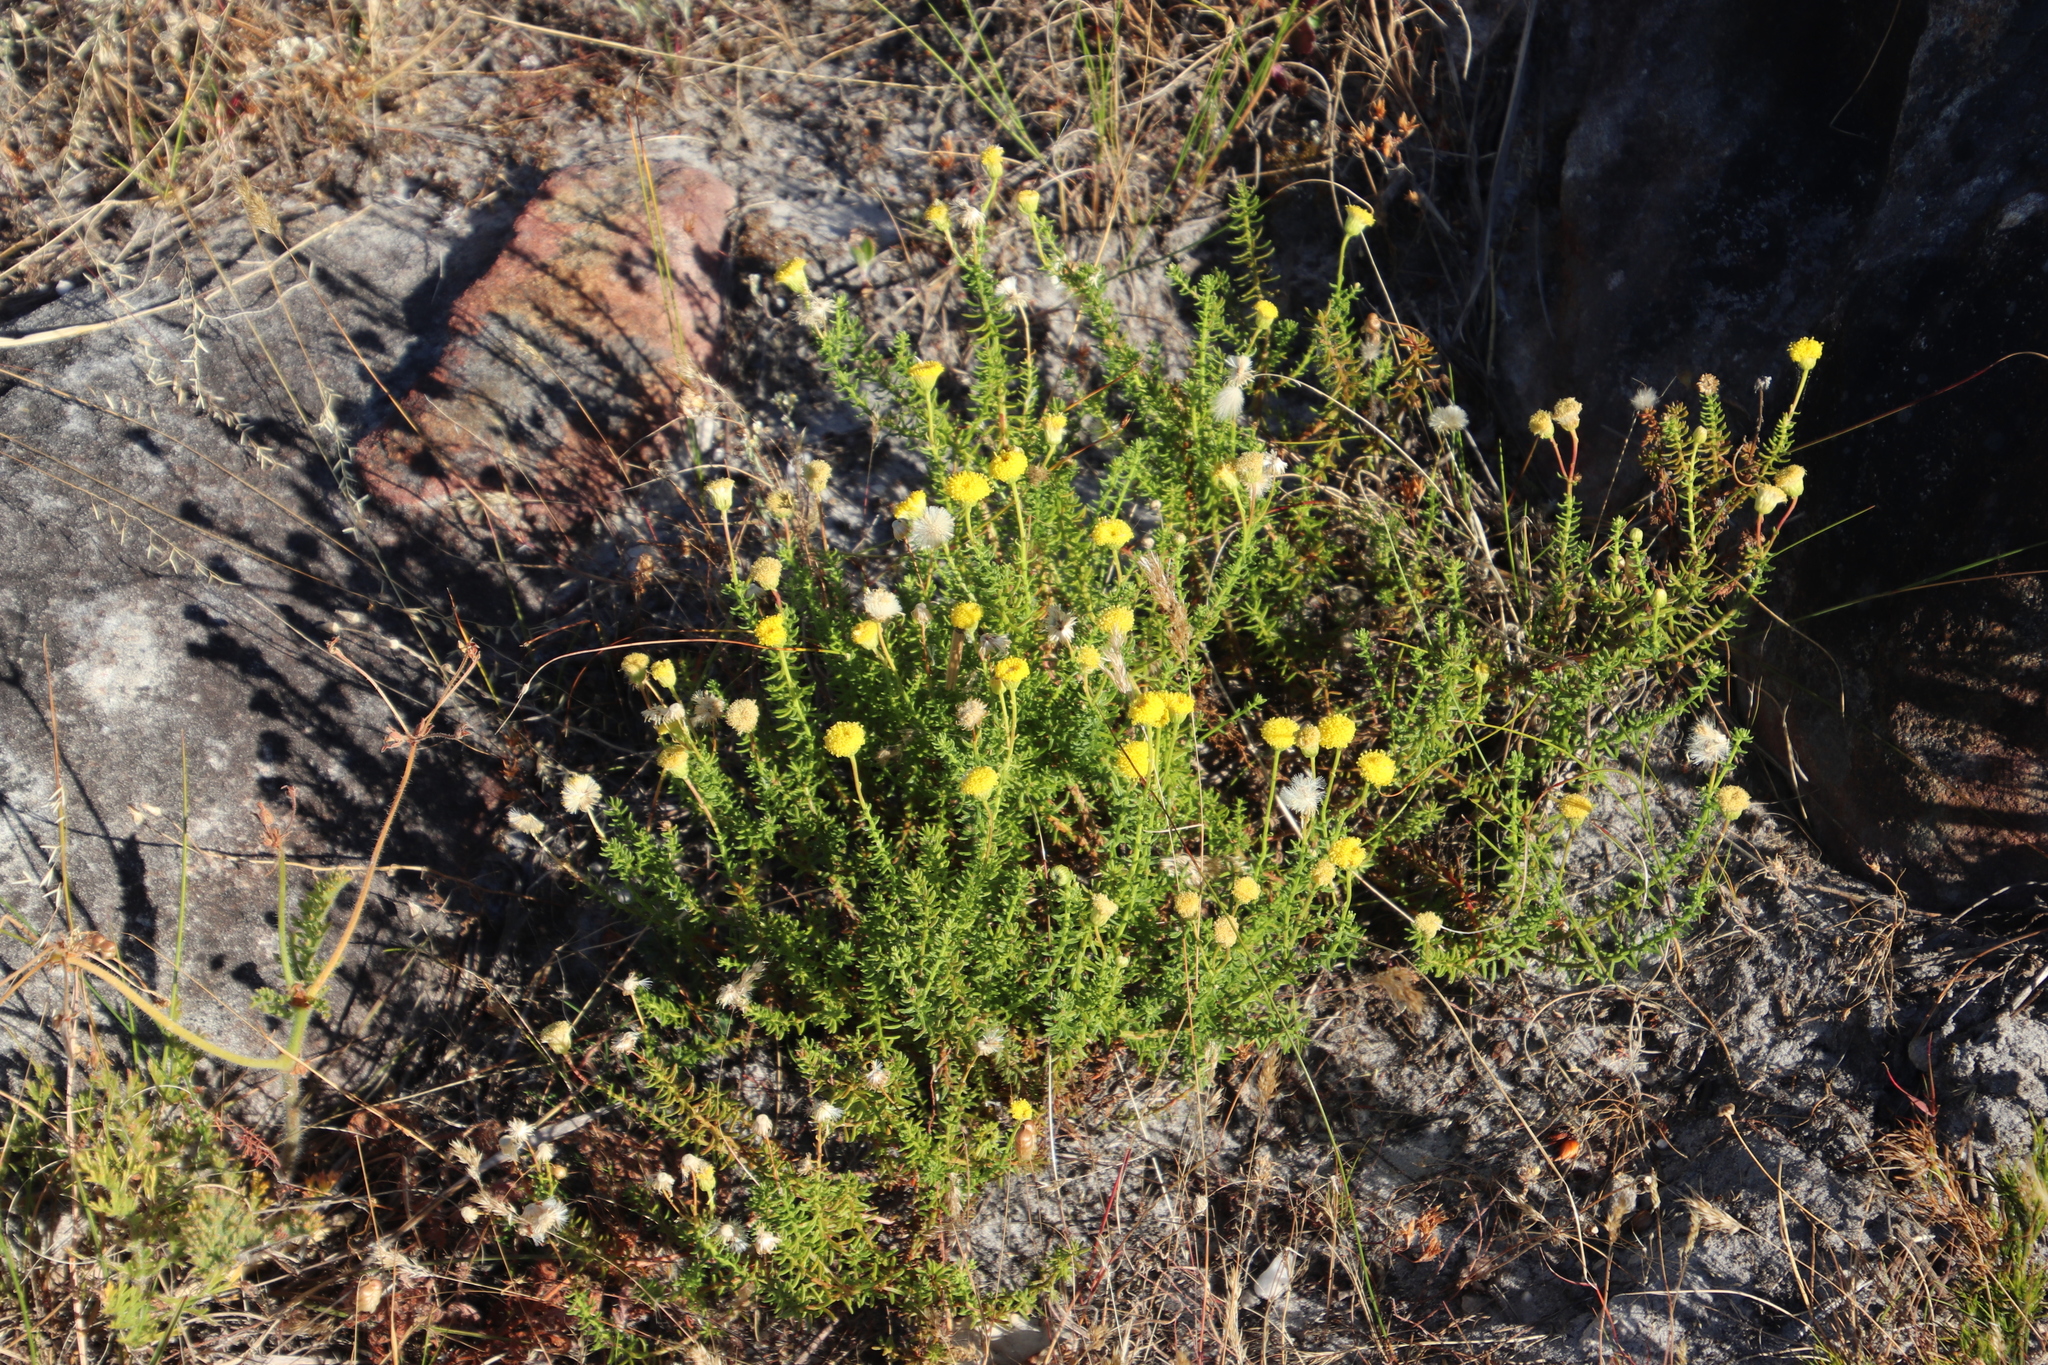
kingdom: Plantae
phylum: Tracheophyta
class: Magnoliopsida
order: Asterales
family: Asteraceae
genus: Chrysocoma
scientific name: Chrysocoma cernua
